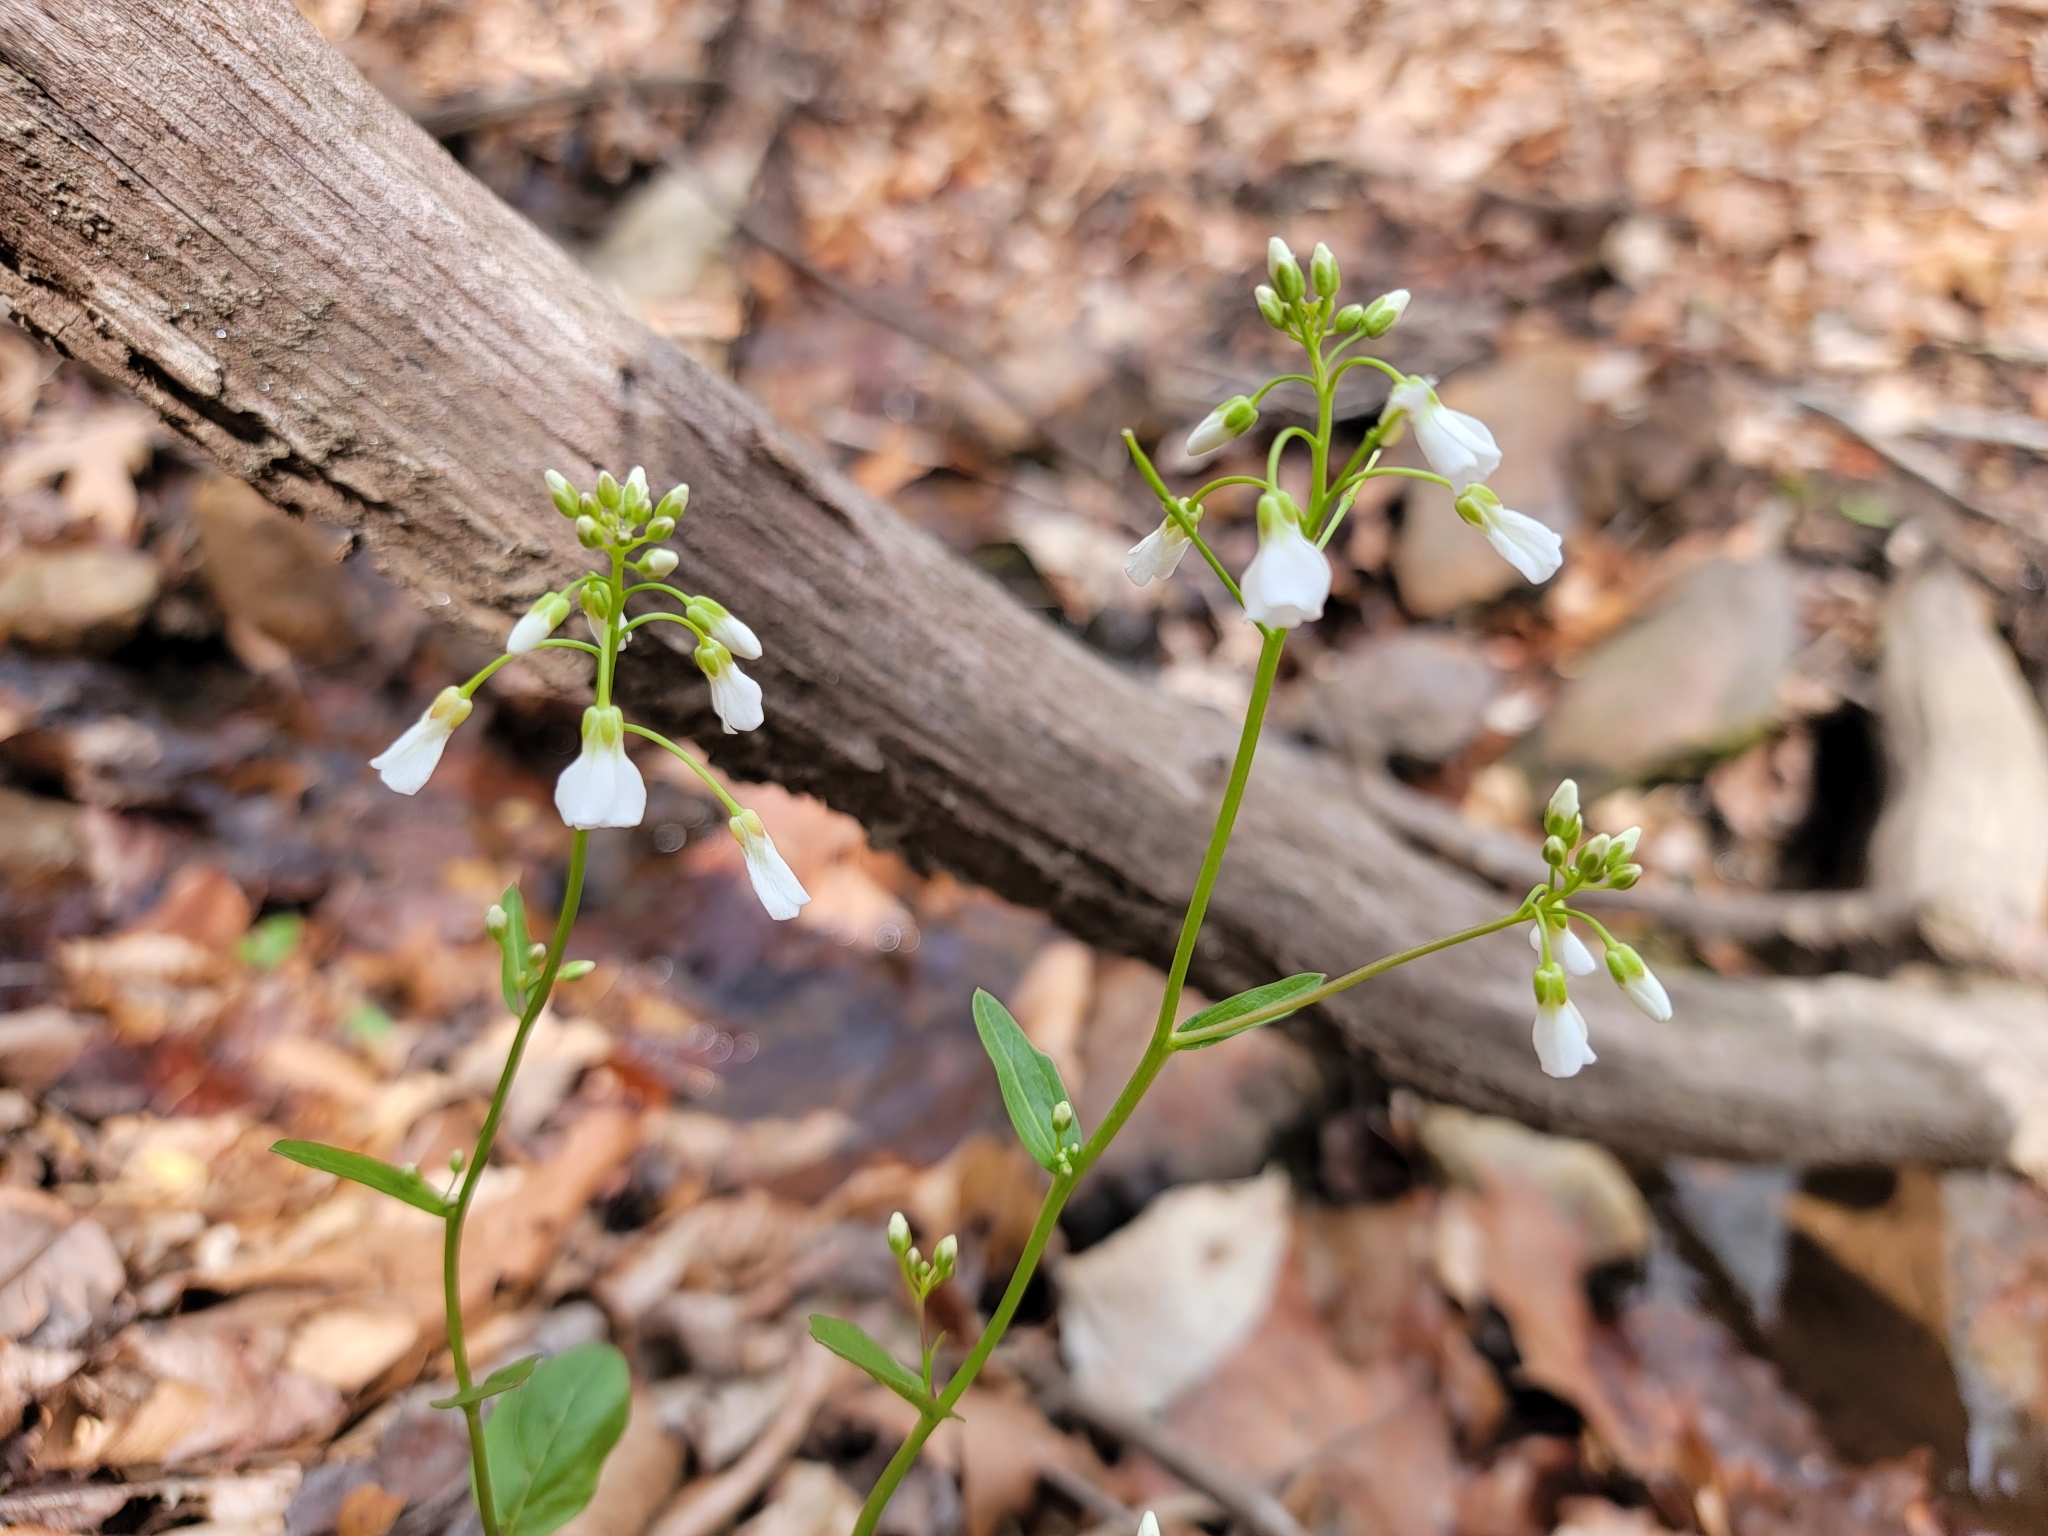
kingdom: Plantae
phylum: Tracheophyta
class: Magnoliopsida
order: Brassicales
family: Brassicaceae
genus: Cardamine
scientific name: Cardamine bulbosa
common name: Spring cress
